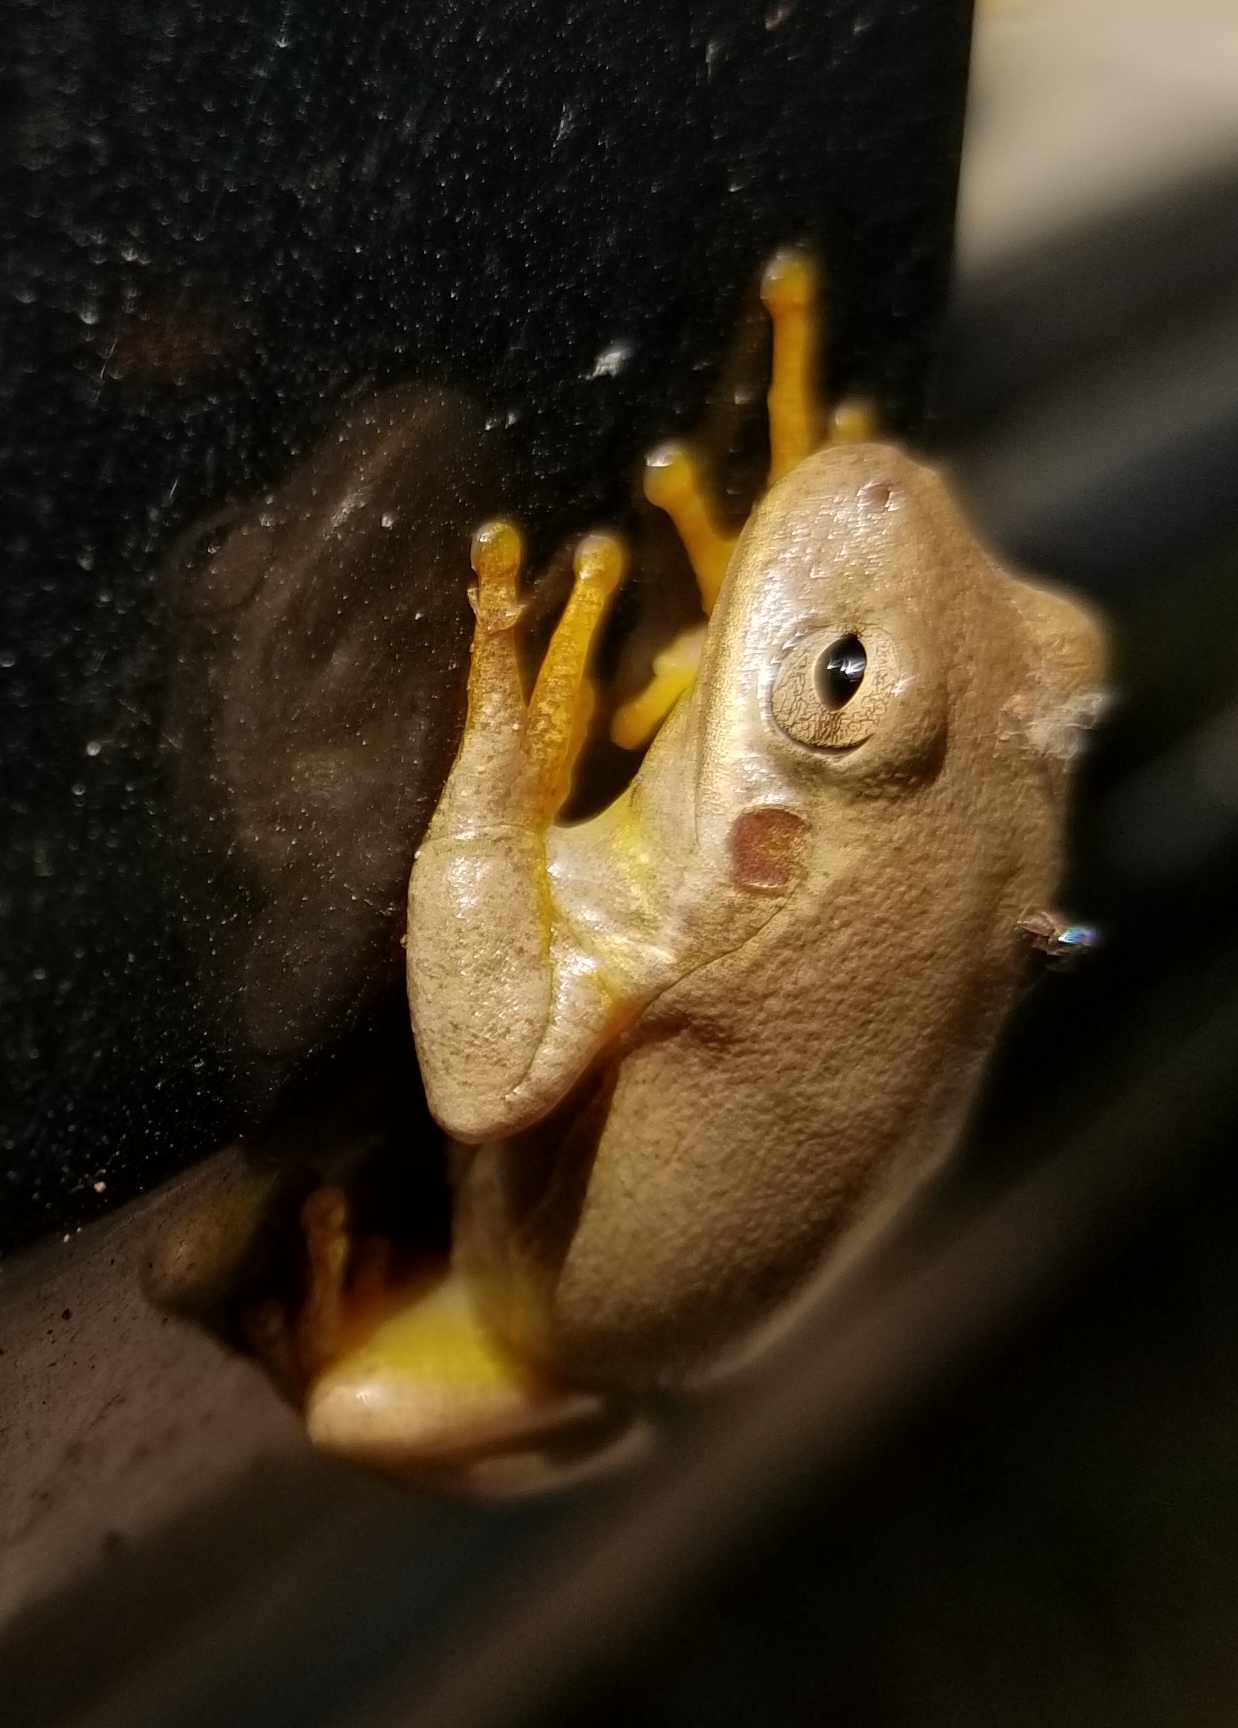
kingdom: Animalia
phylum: Chordata
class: Amphibia
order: Anura
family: Hylidae
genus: Dryophytes
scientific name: Dryophytes squirellus
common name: Squirrel treefrog
